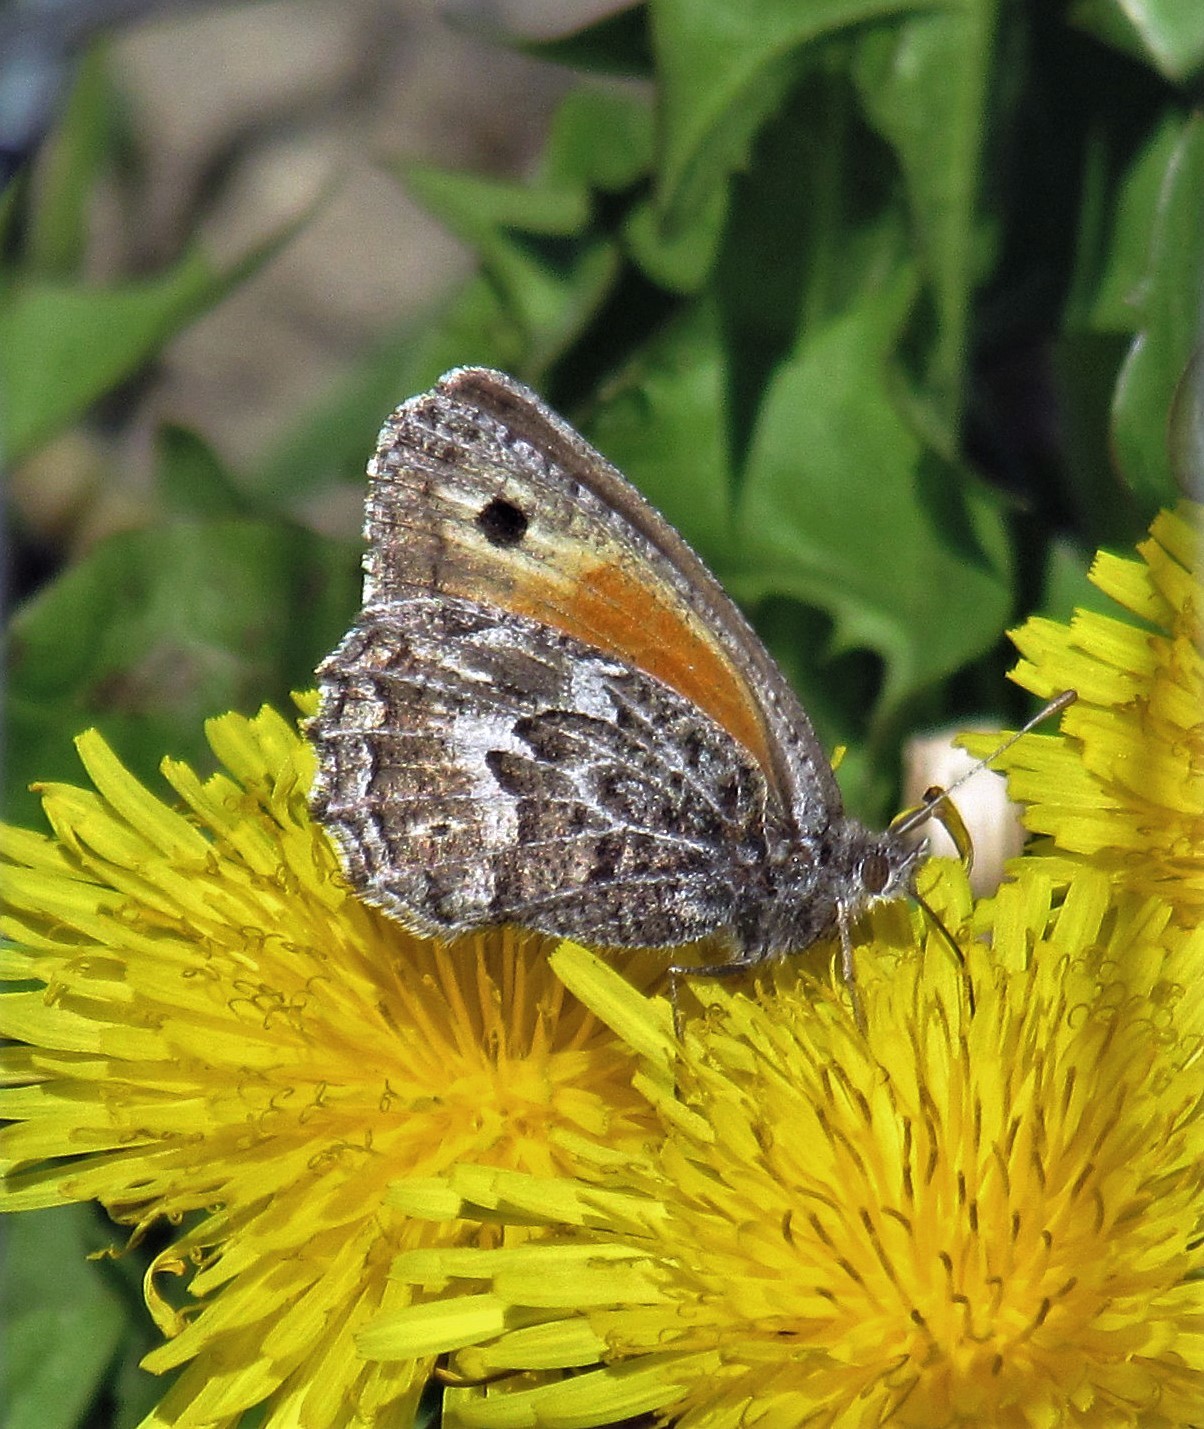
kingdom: Animalia
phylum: Arthropoda
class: Insecta
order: Lepidoptera
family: Nymphalidae
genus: Argyrophorus
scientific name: Argyrophorus
